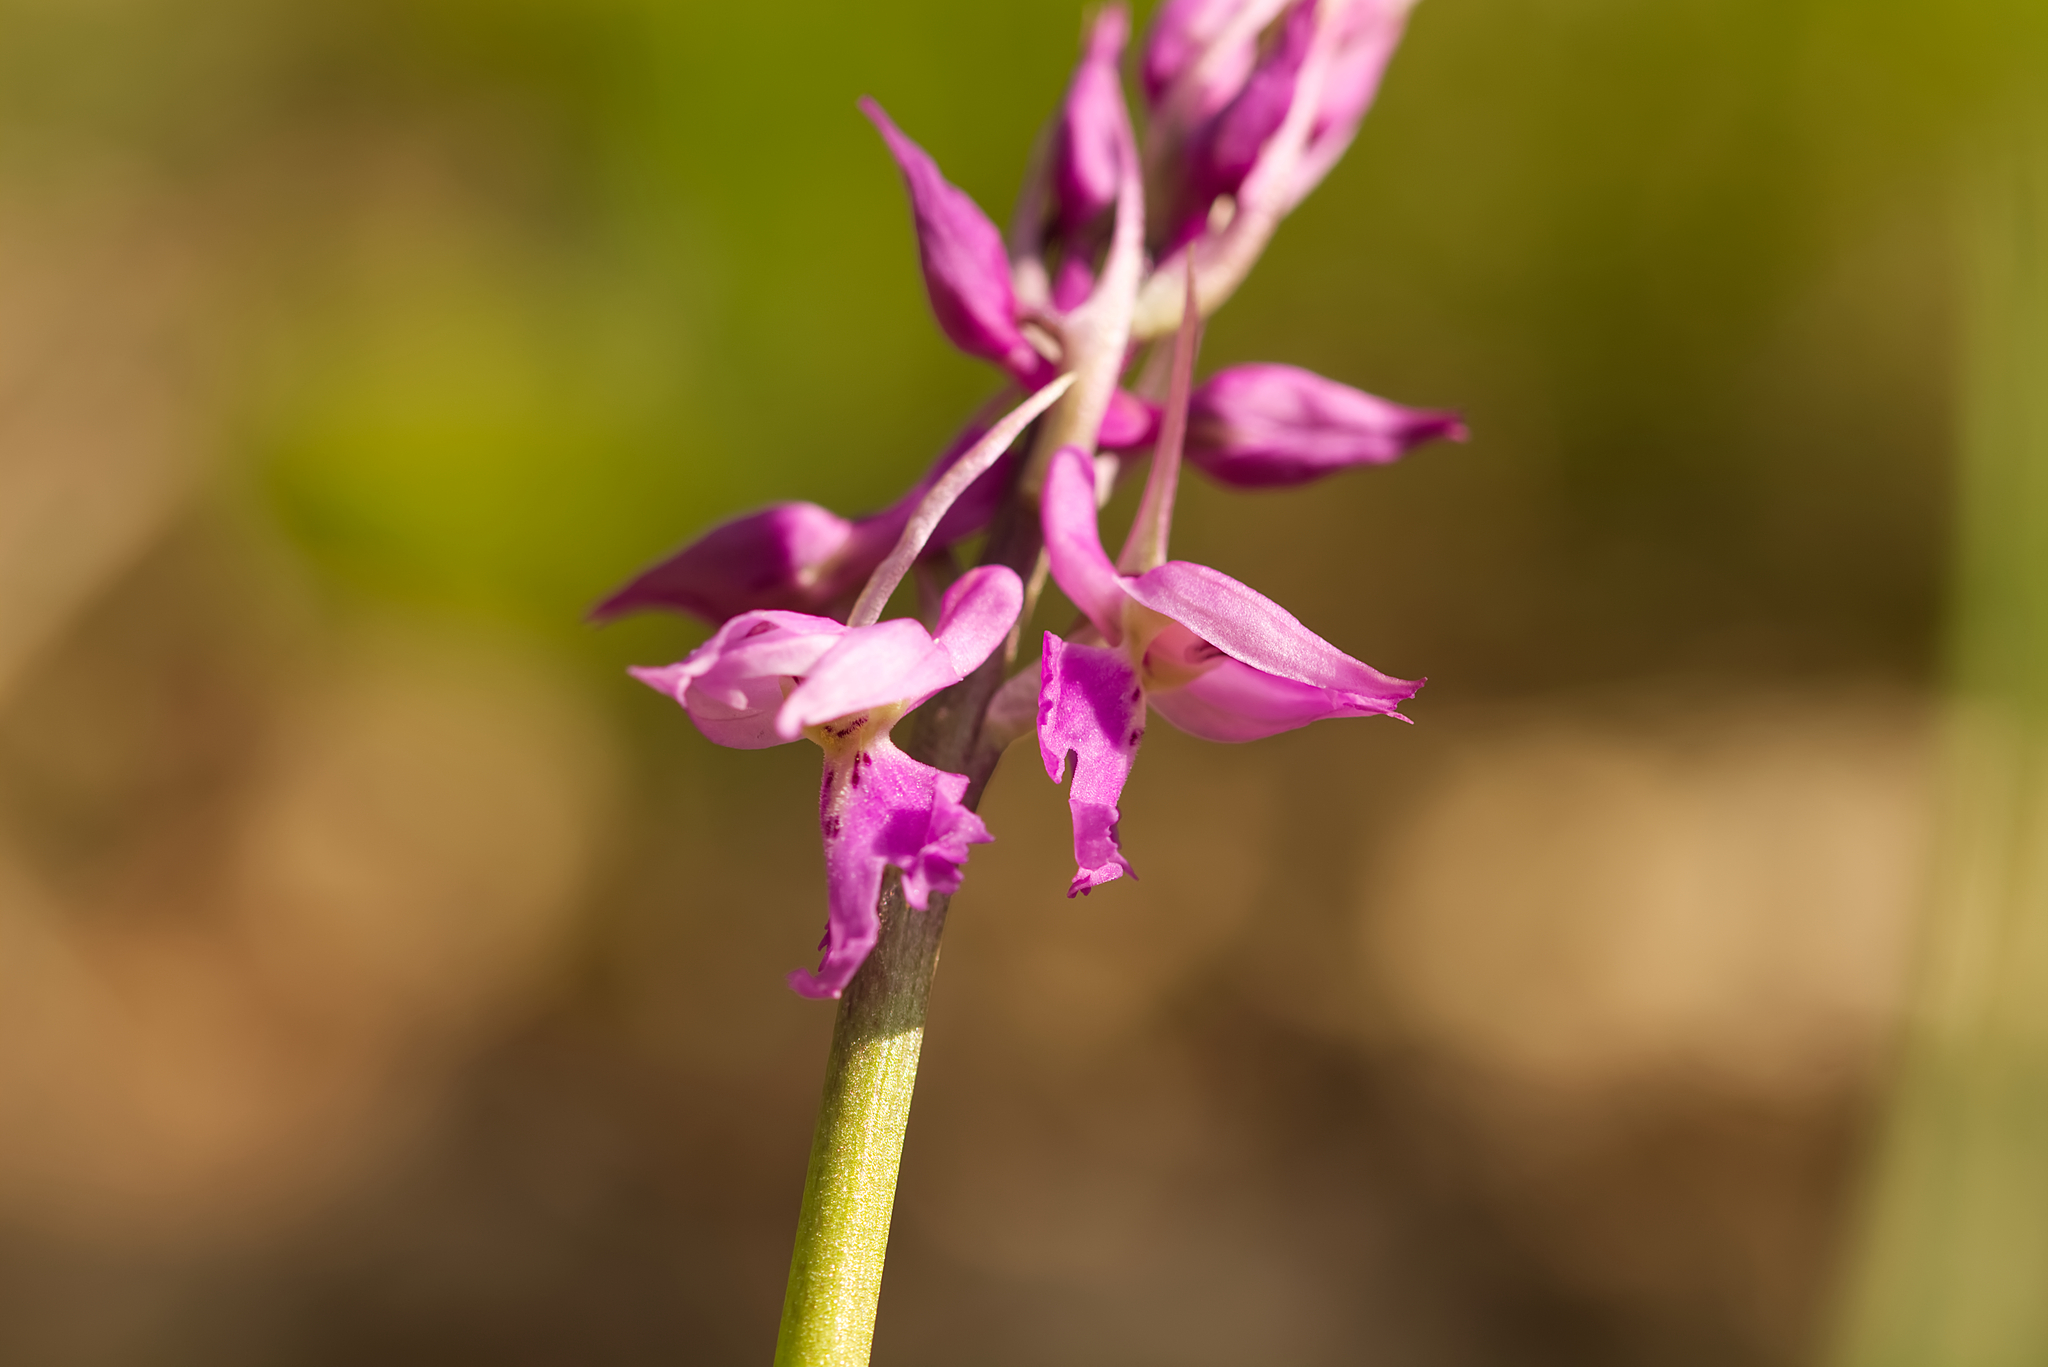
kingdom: Plantae
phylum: Tracheophyta
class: Liliopsida
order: Asparagales
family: Orchidaceae
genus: Orchis
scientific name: Orchis mascula
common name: Early-purple orchid
